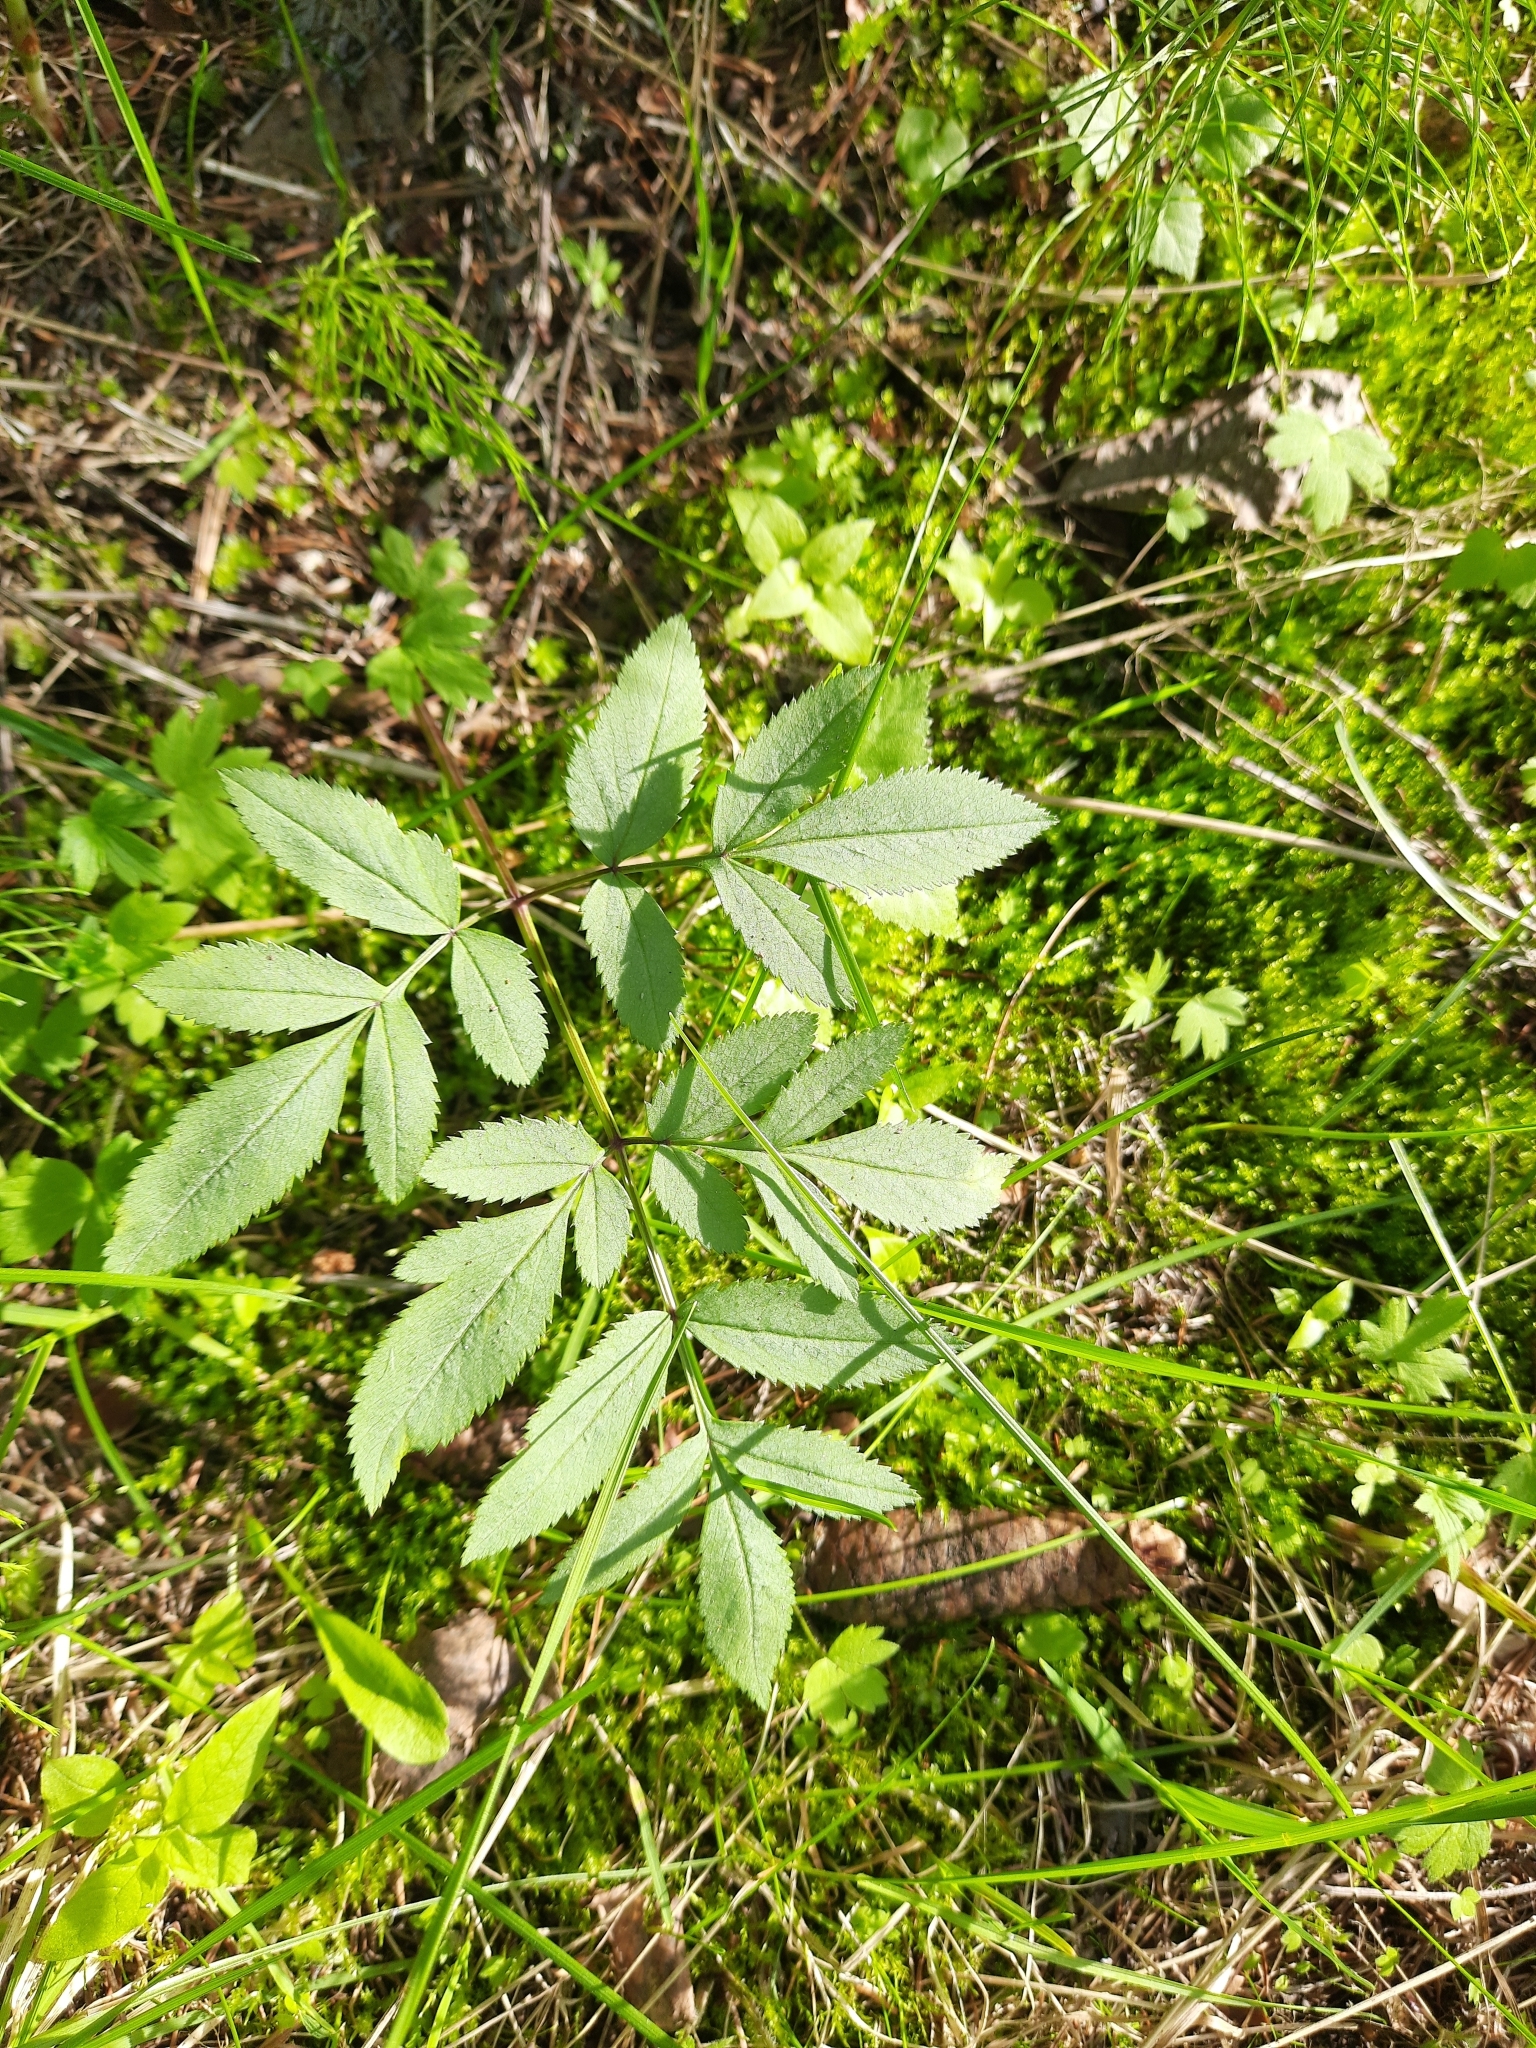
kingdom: Plantae
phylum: Tracheophyta
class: Magnoliopsida
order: Apiales
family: Apiaceae
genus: Angelica
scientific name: Angelica sylvestris
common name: Wild angelica
